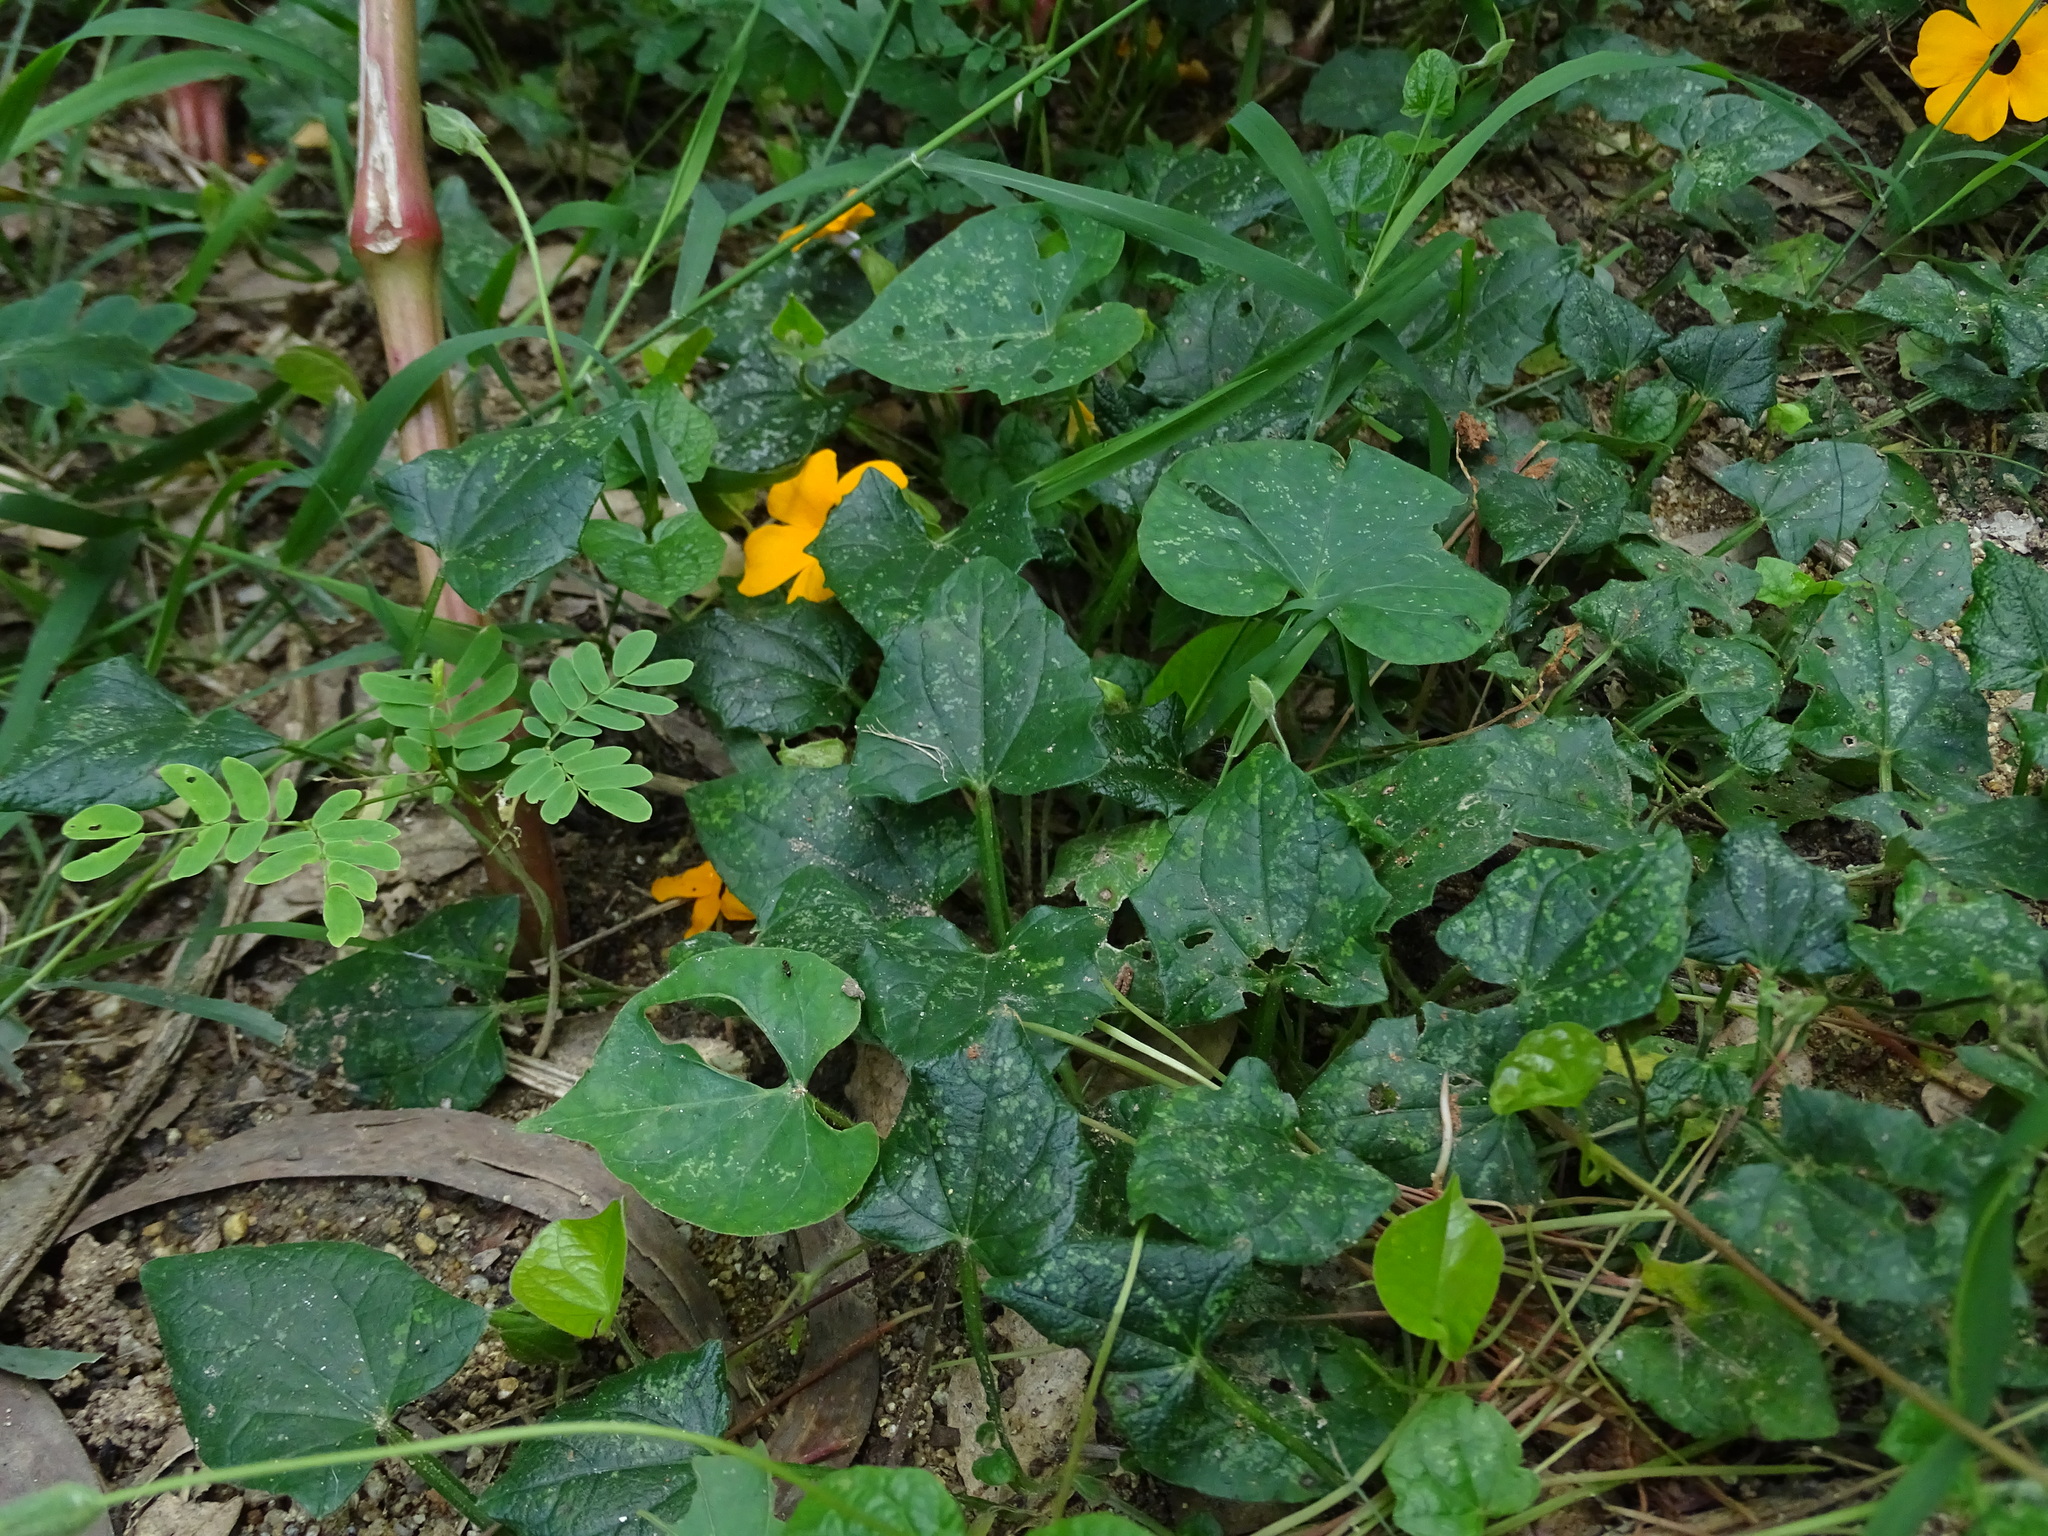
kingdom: Plantae
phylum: Tracheophyta
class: Magnoliopsida
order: Lamiales
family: Acanthaceae
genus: Thunbergia
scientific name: Thunbergia alata
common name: Blackeyed susan vine
